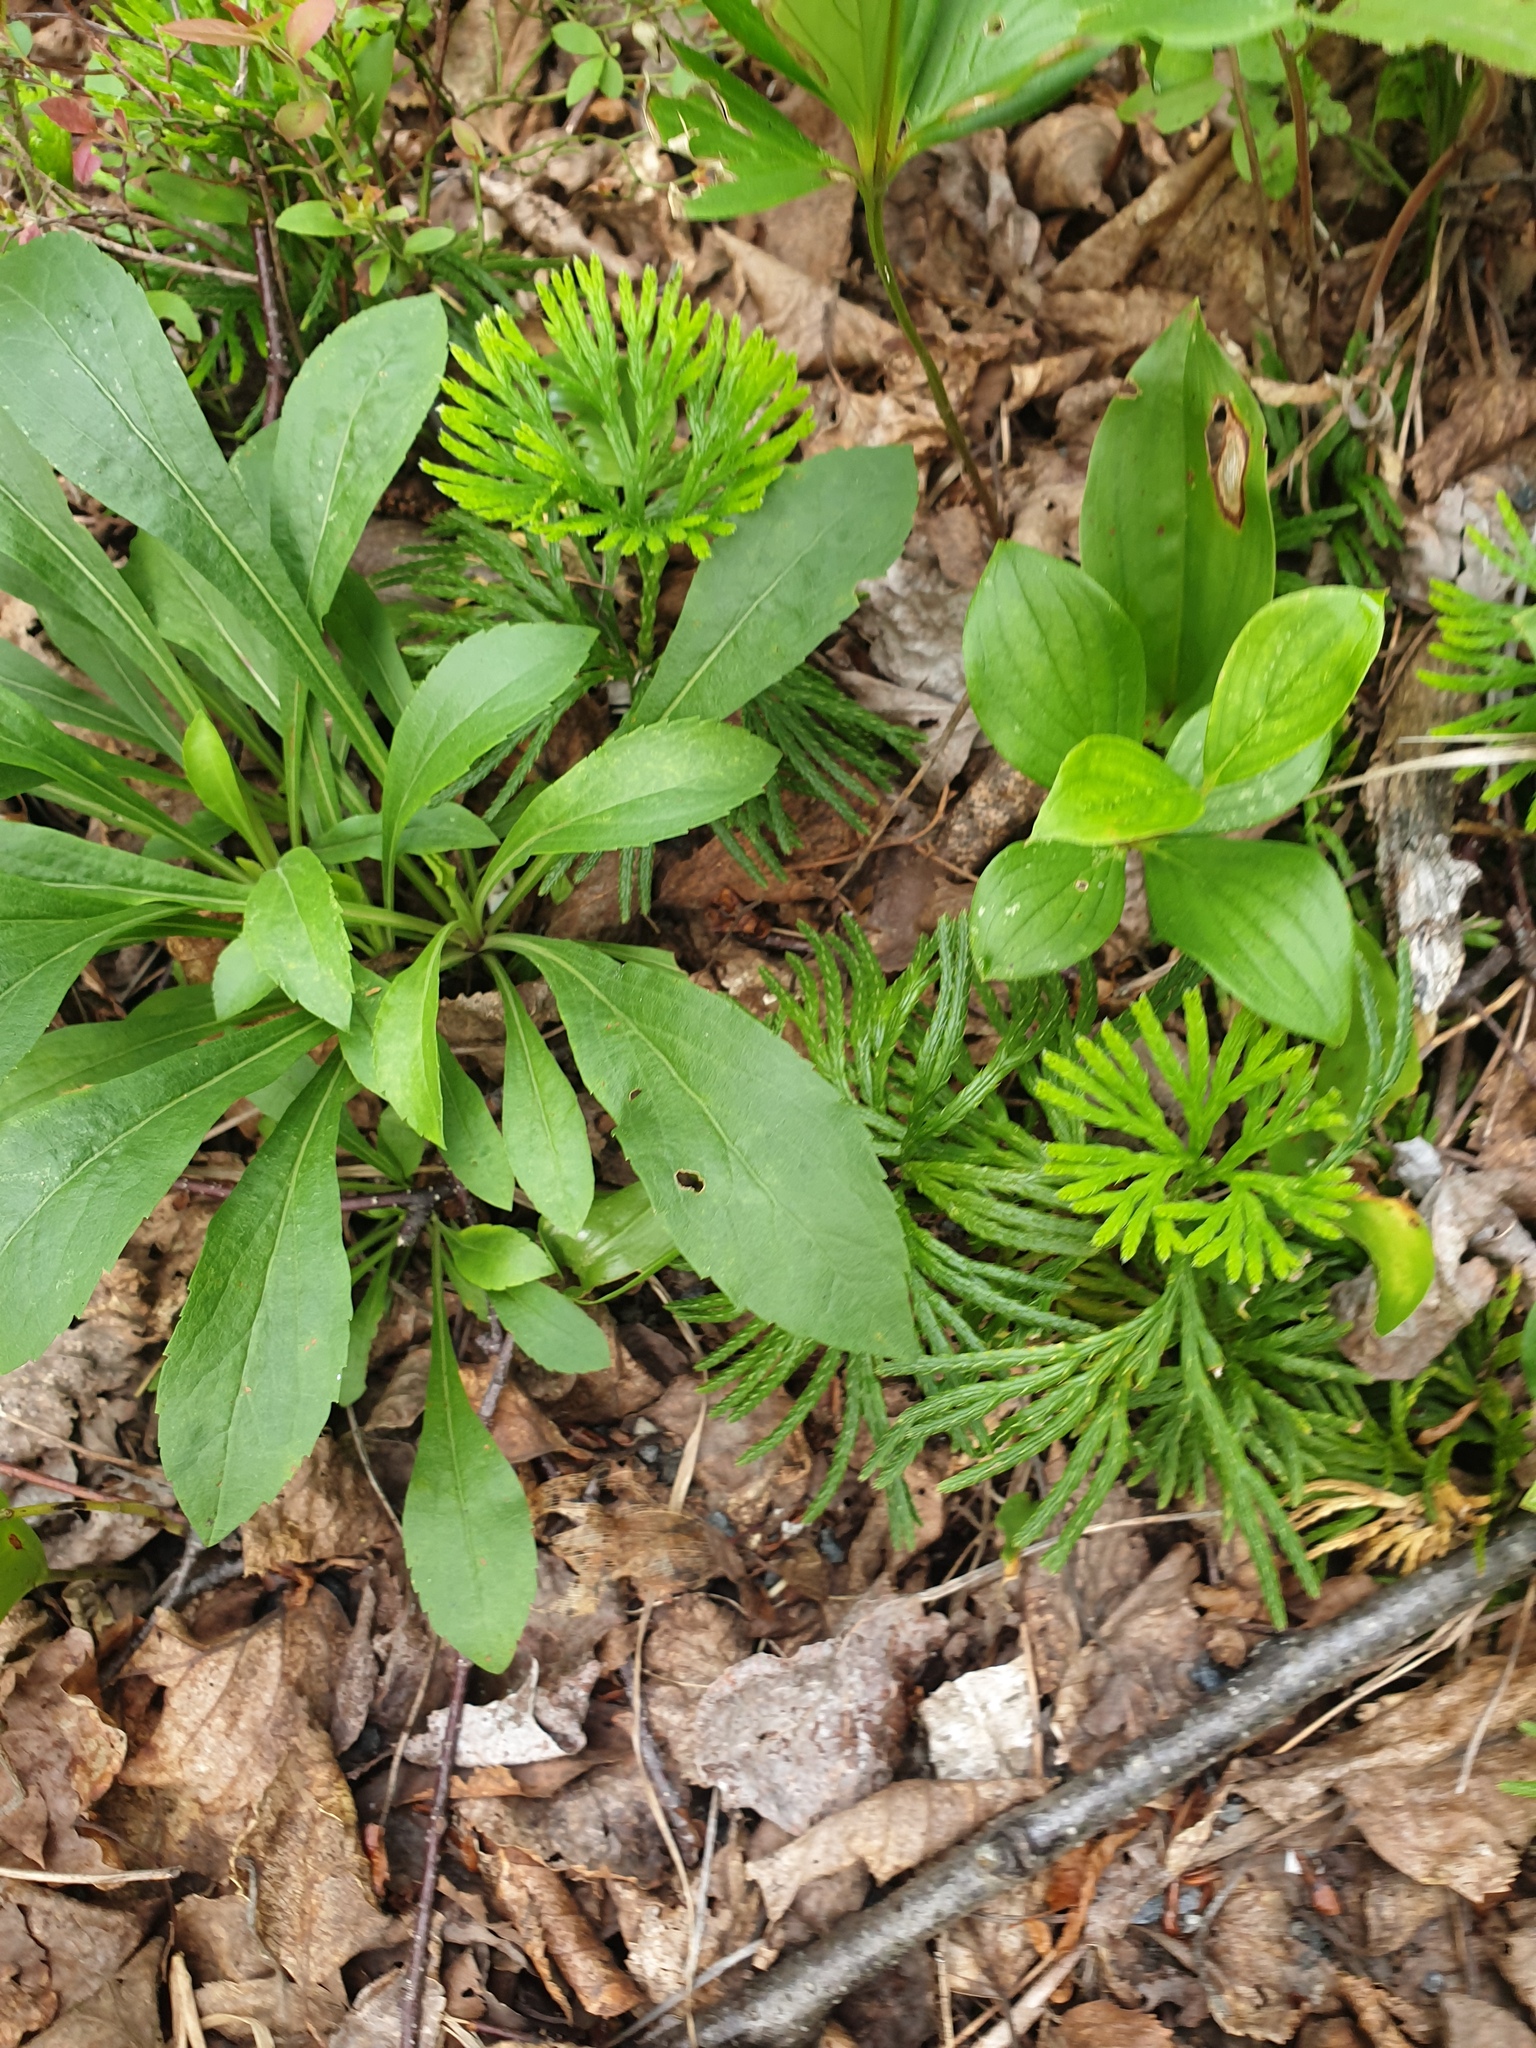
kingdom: Plantae
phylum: Tracheophyta
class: Lycopodiopsida
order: Lycopodiales
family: Lycopodiaceae
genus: Diphasiastrum
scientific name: Diphasiastrum digitatum
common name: Southern running-pine
